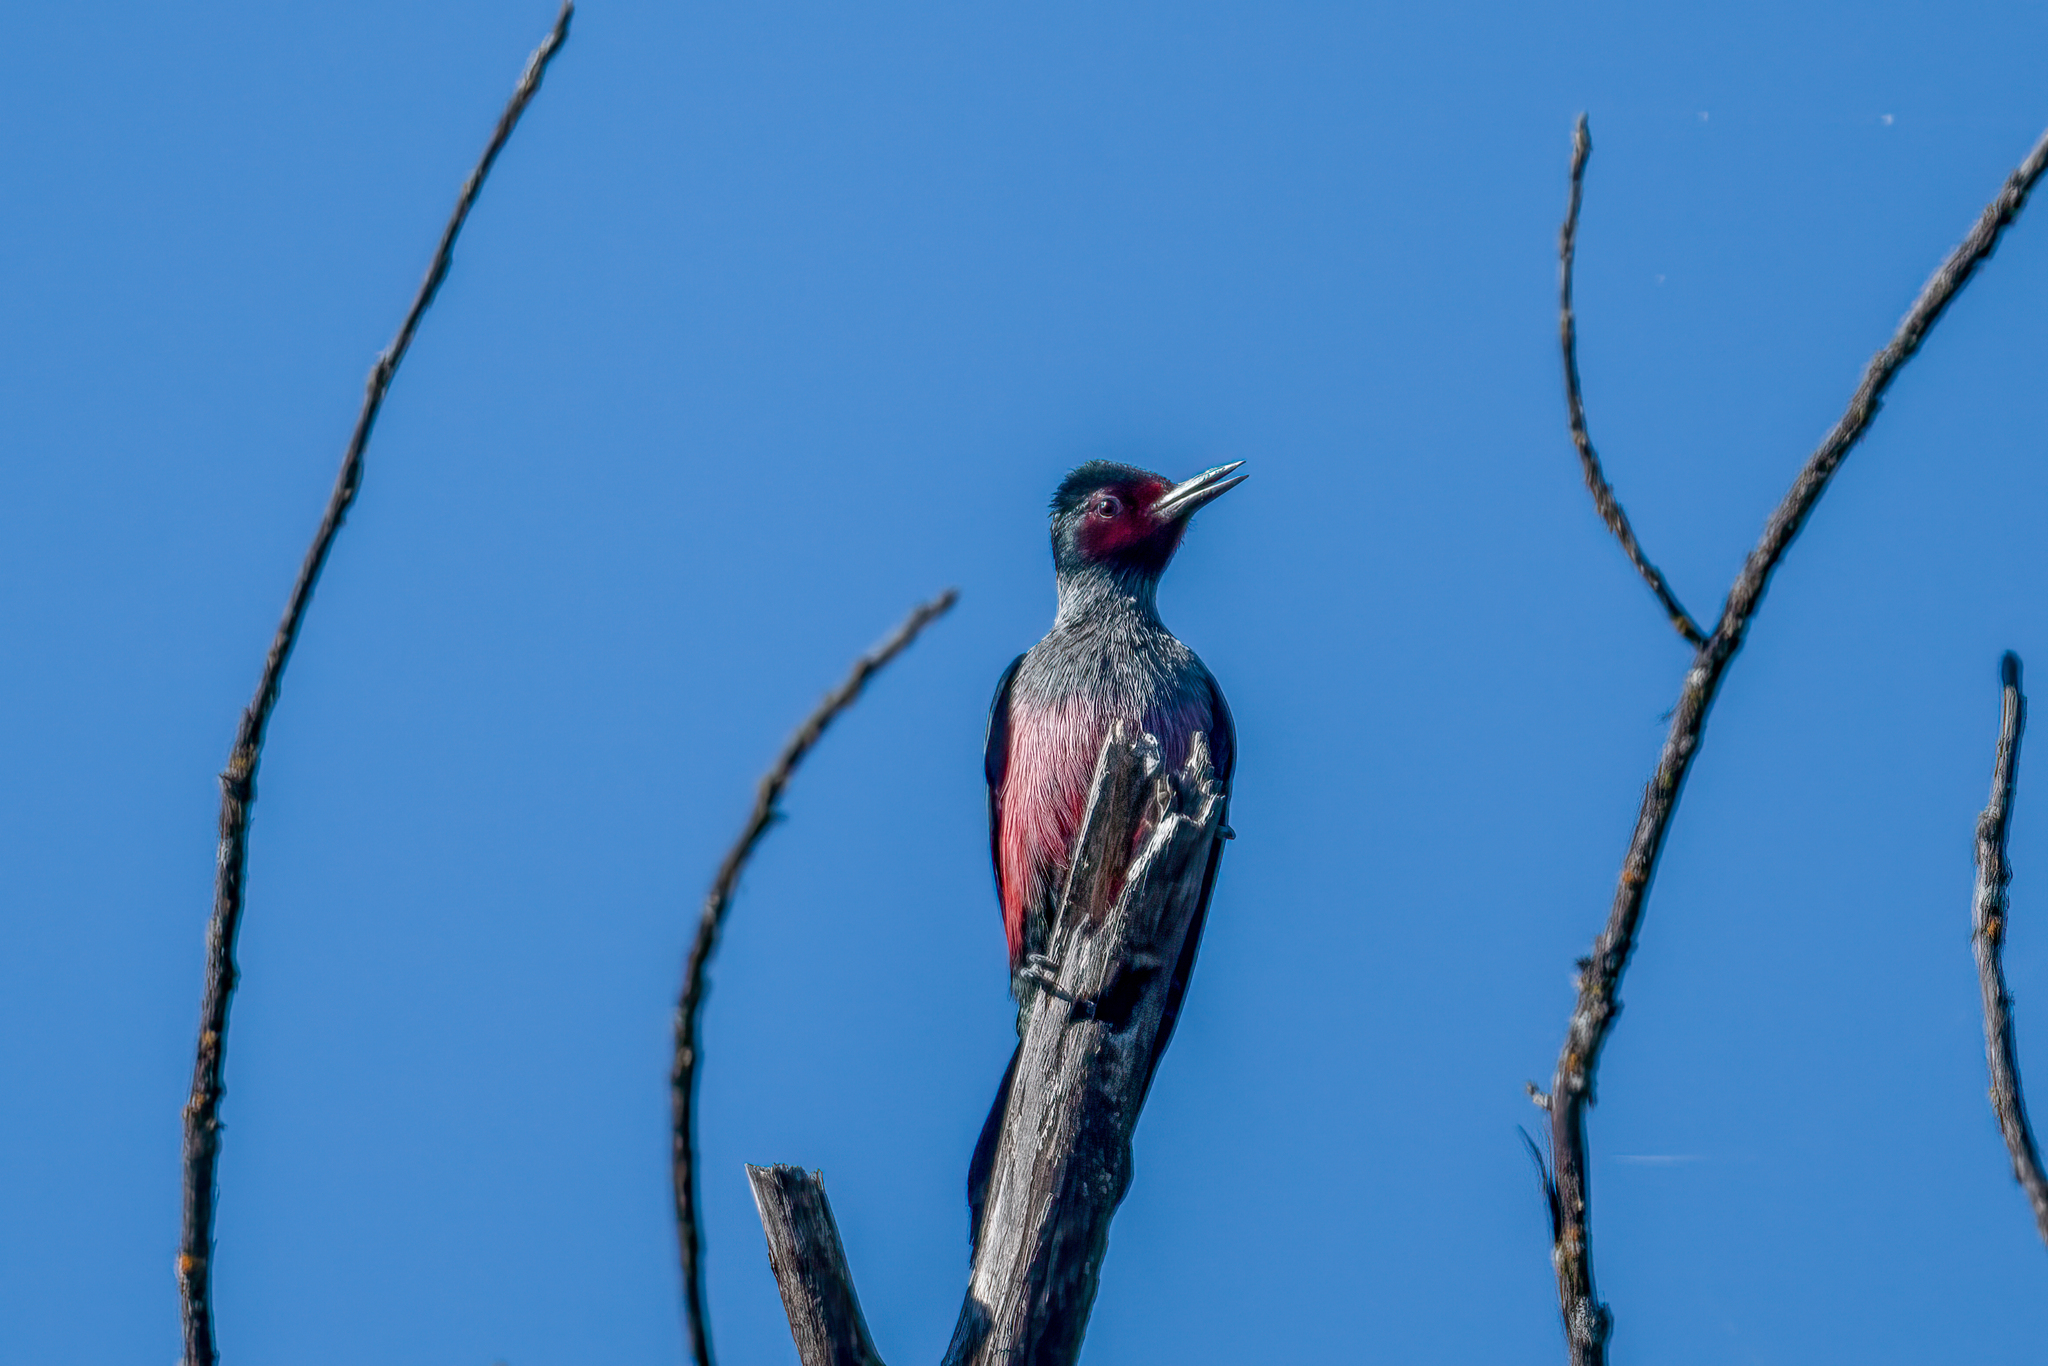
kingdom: Animalia
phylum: Chordata
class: Aves
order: Piciformes
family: Picidae
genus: Melanerpes
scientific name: Melanerpes lewis
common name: Lewis's woodpecker
